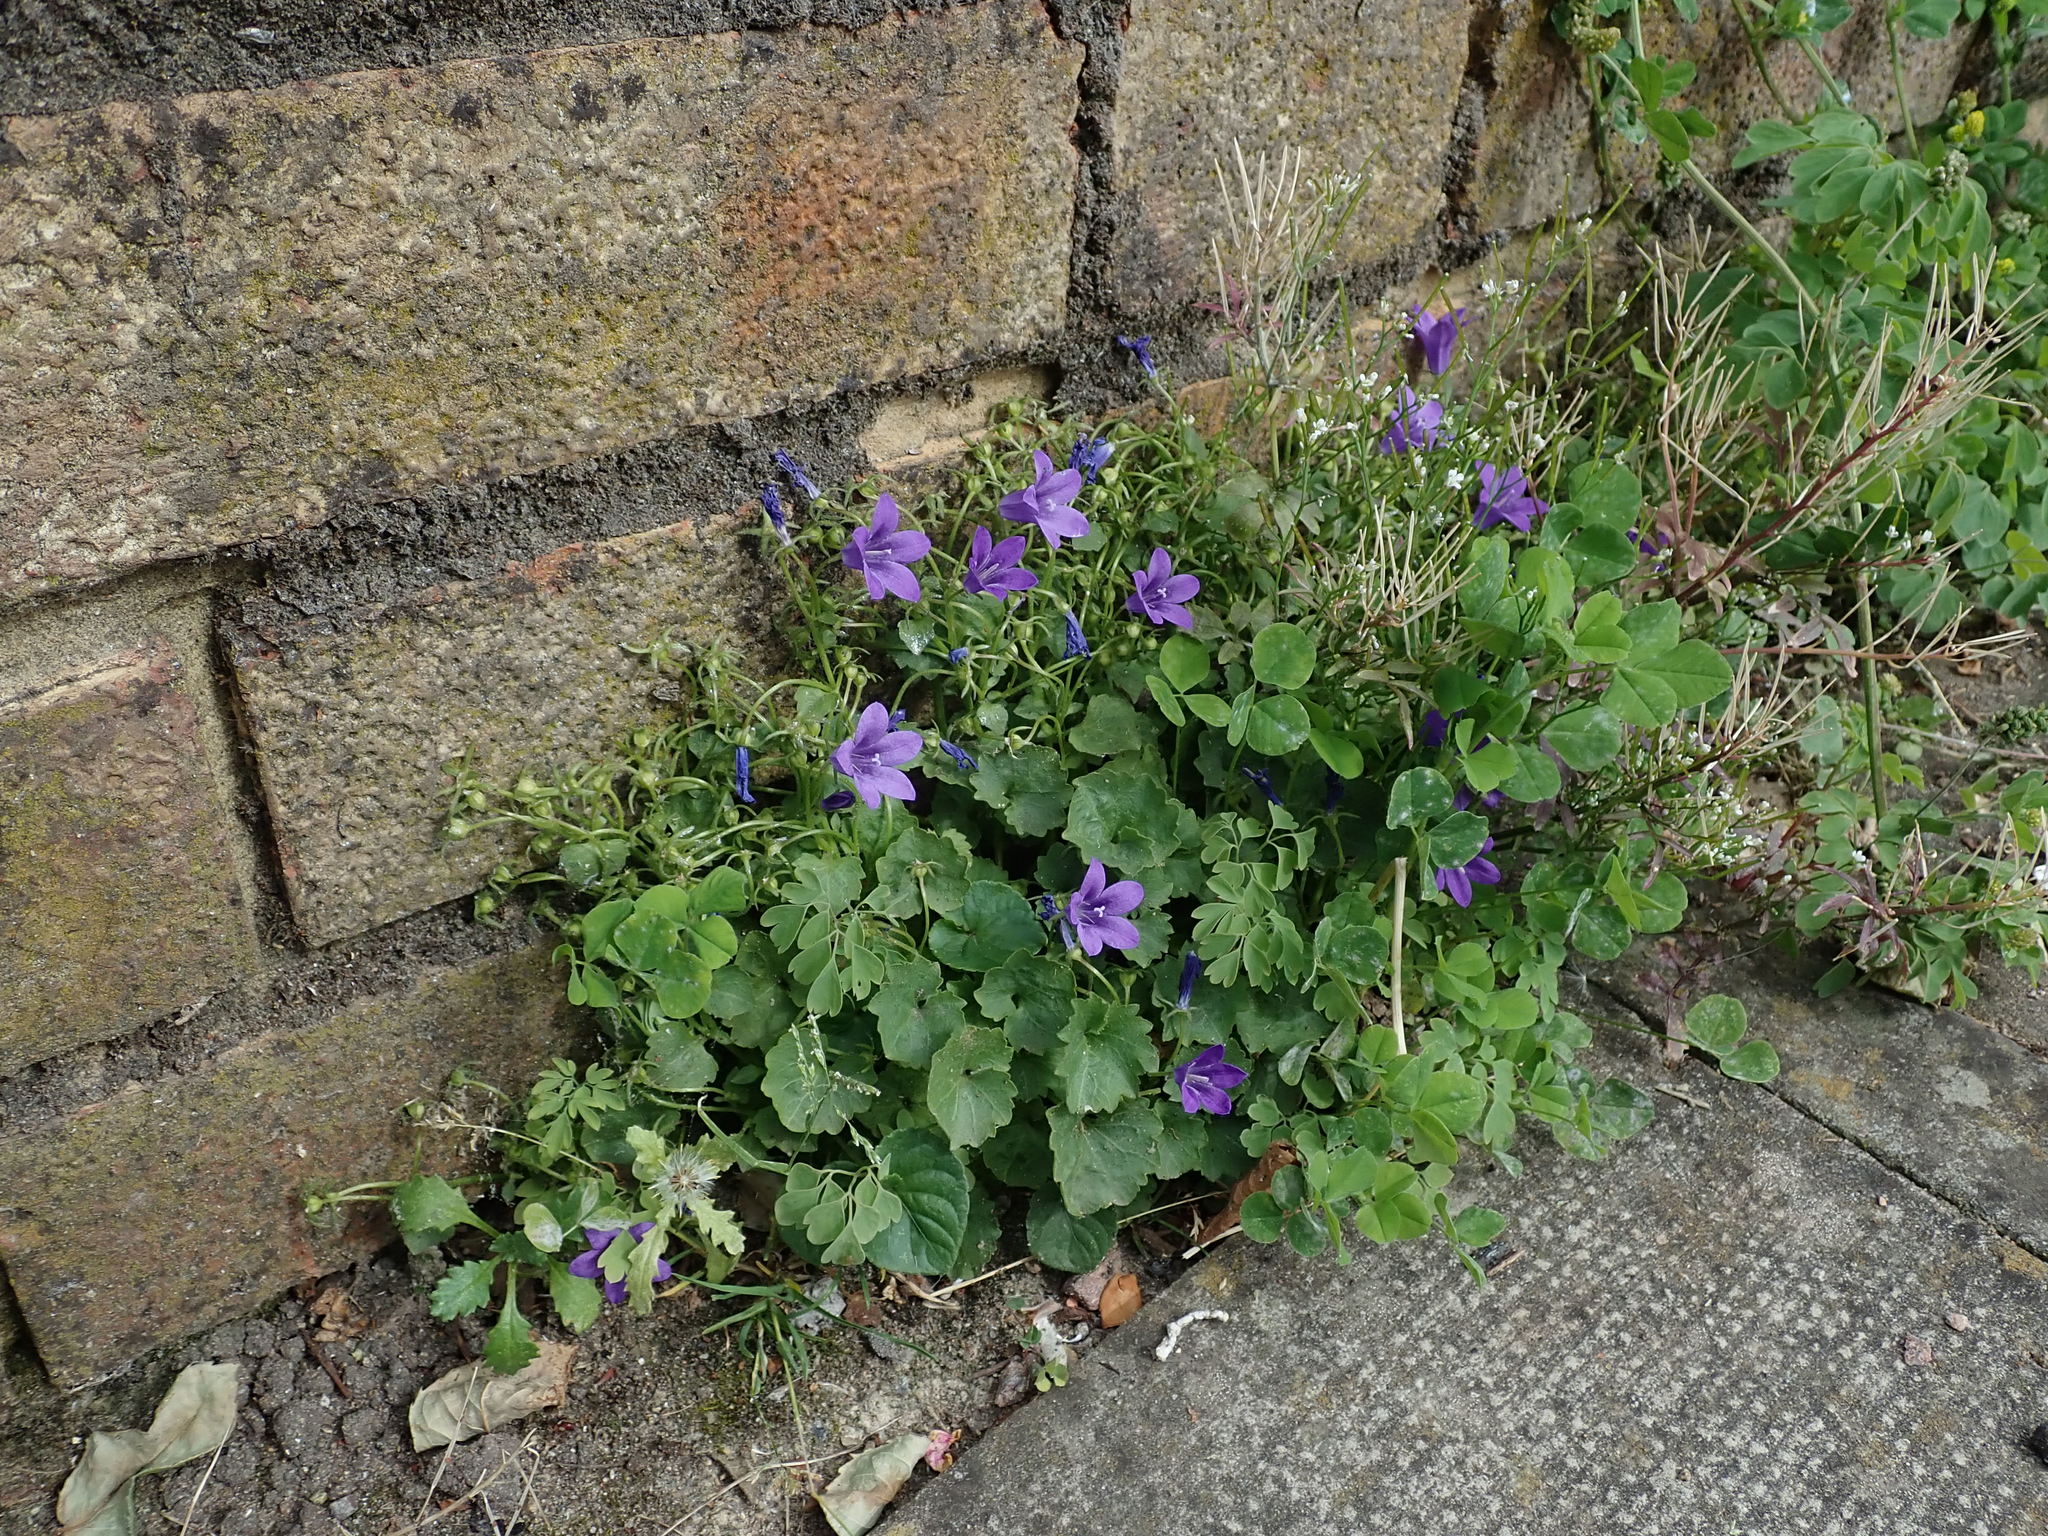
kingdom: Plantae
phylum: Tracheophyta
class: Magnoliopsida
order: Asterales
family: Campanulaceae
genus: Campanula
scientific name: Campanula portenschlagiana
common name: Adria bellflower
